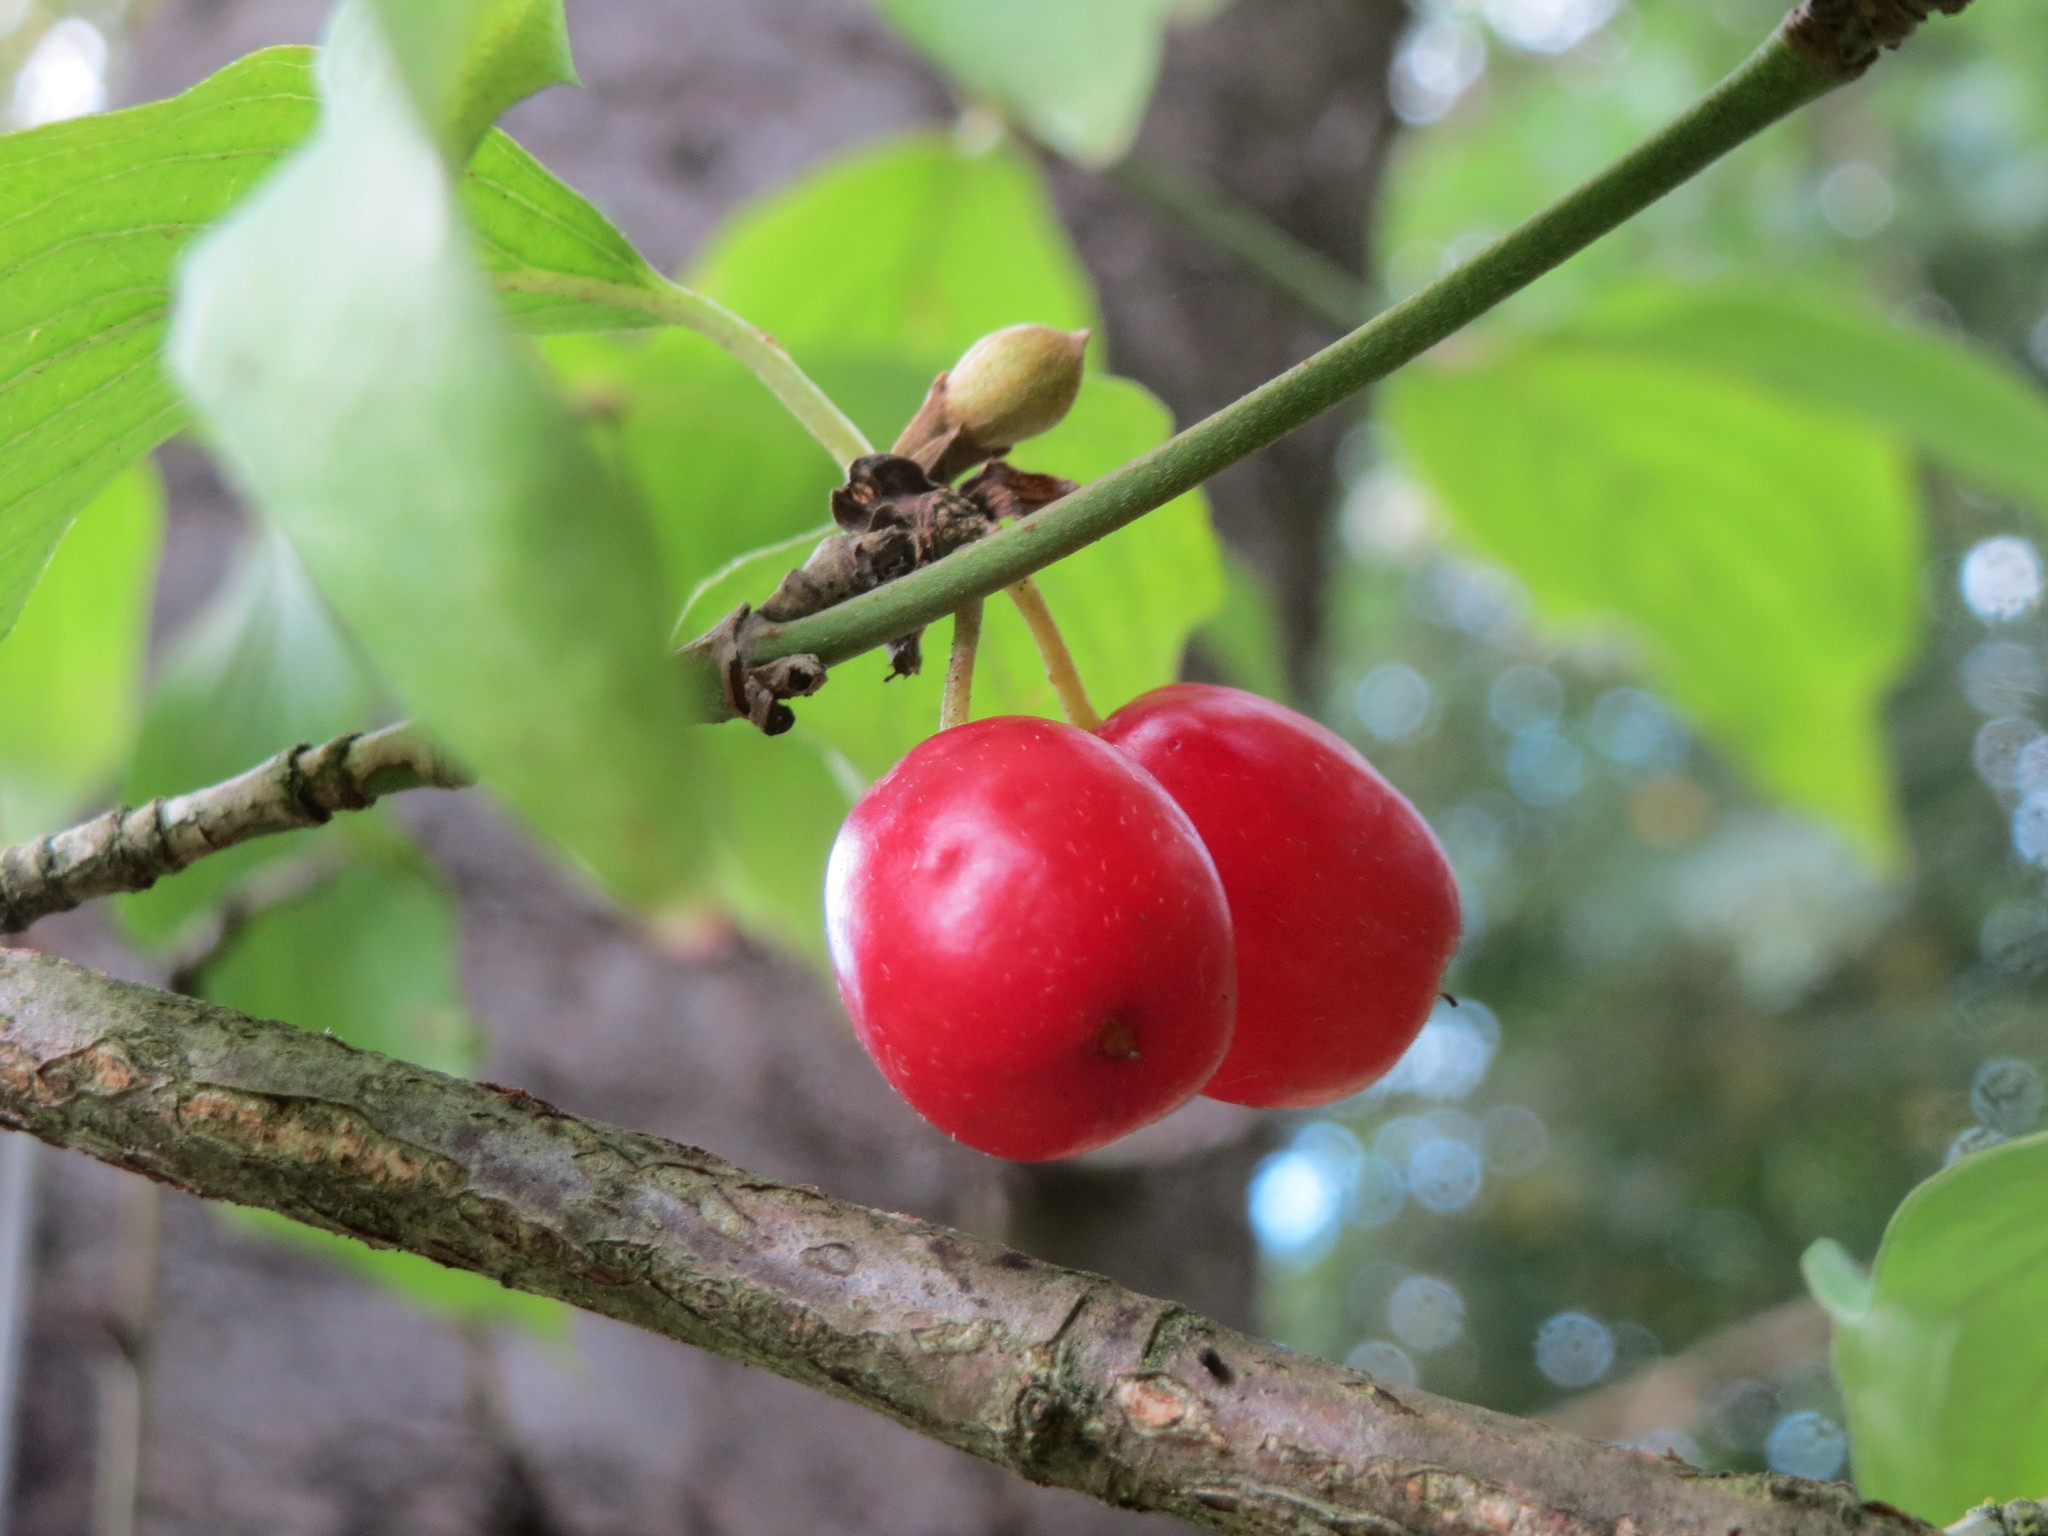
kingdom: Plantae
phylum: Tracheophyta
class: Magnoliopsida
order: Cornales
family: Cornaceae
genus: Cornus
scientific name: Cornus mas
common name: Cornelian-cherry
